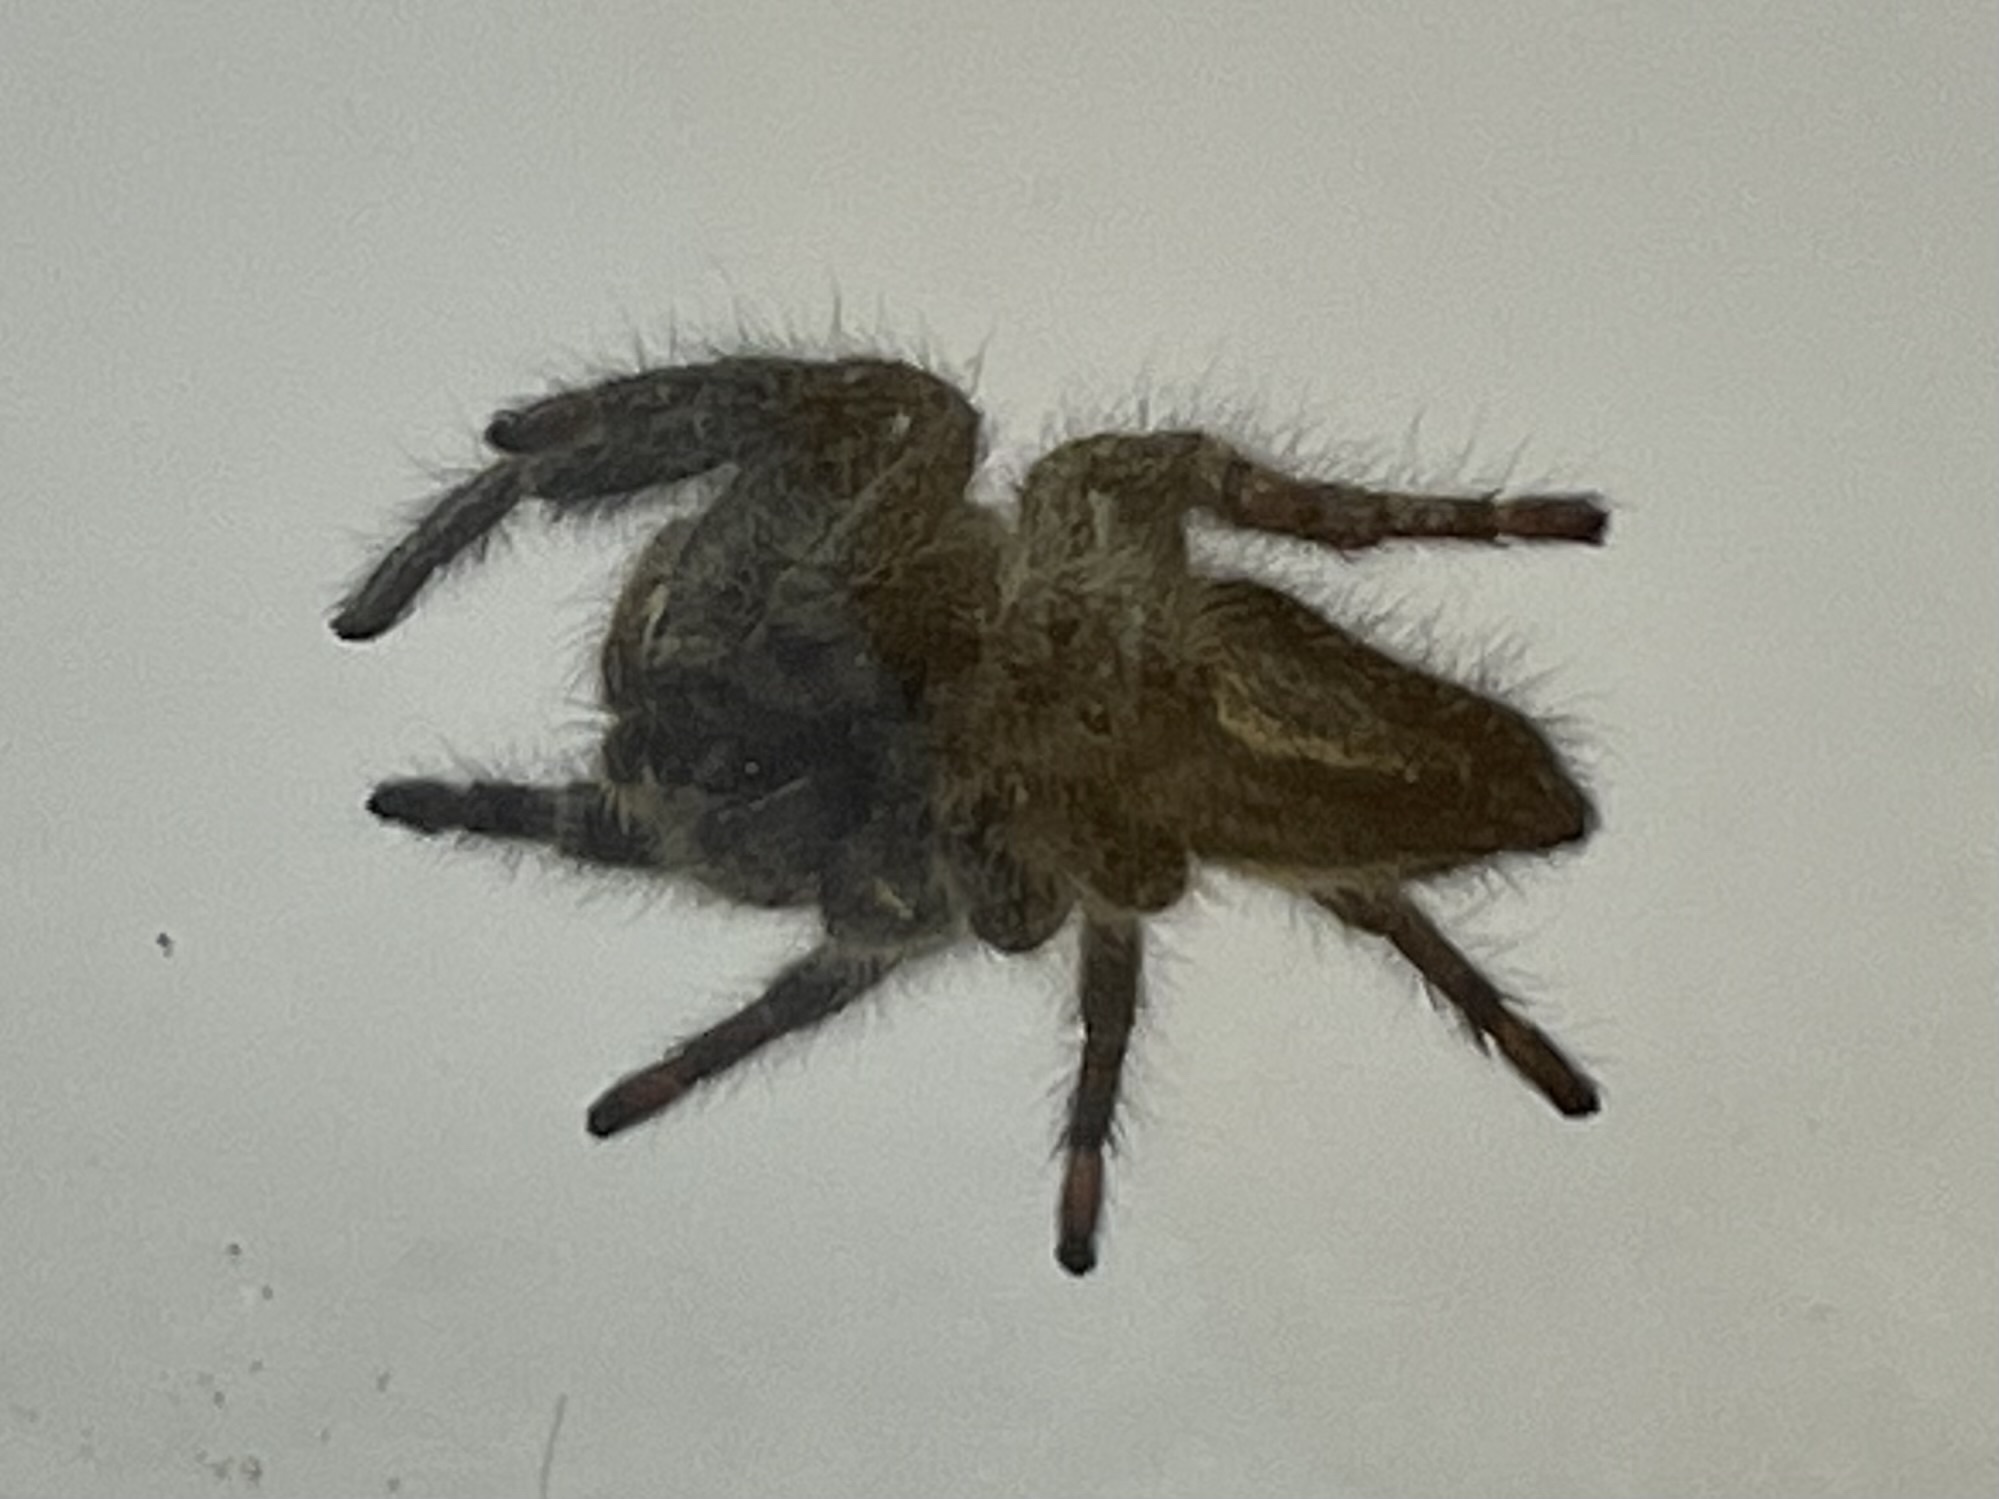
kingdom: Animalia
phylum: Arthropoda
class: Arachnida
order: Araneae
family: Salticidae
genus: Phidippus
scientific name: Phidippus audax
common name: Bold jumper
